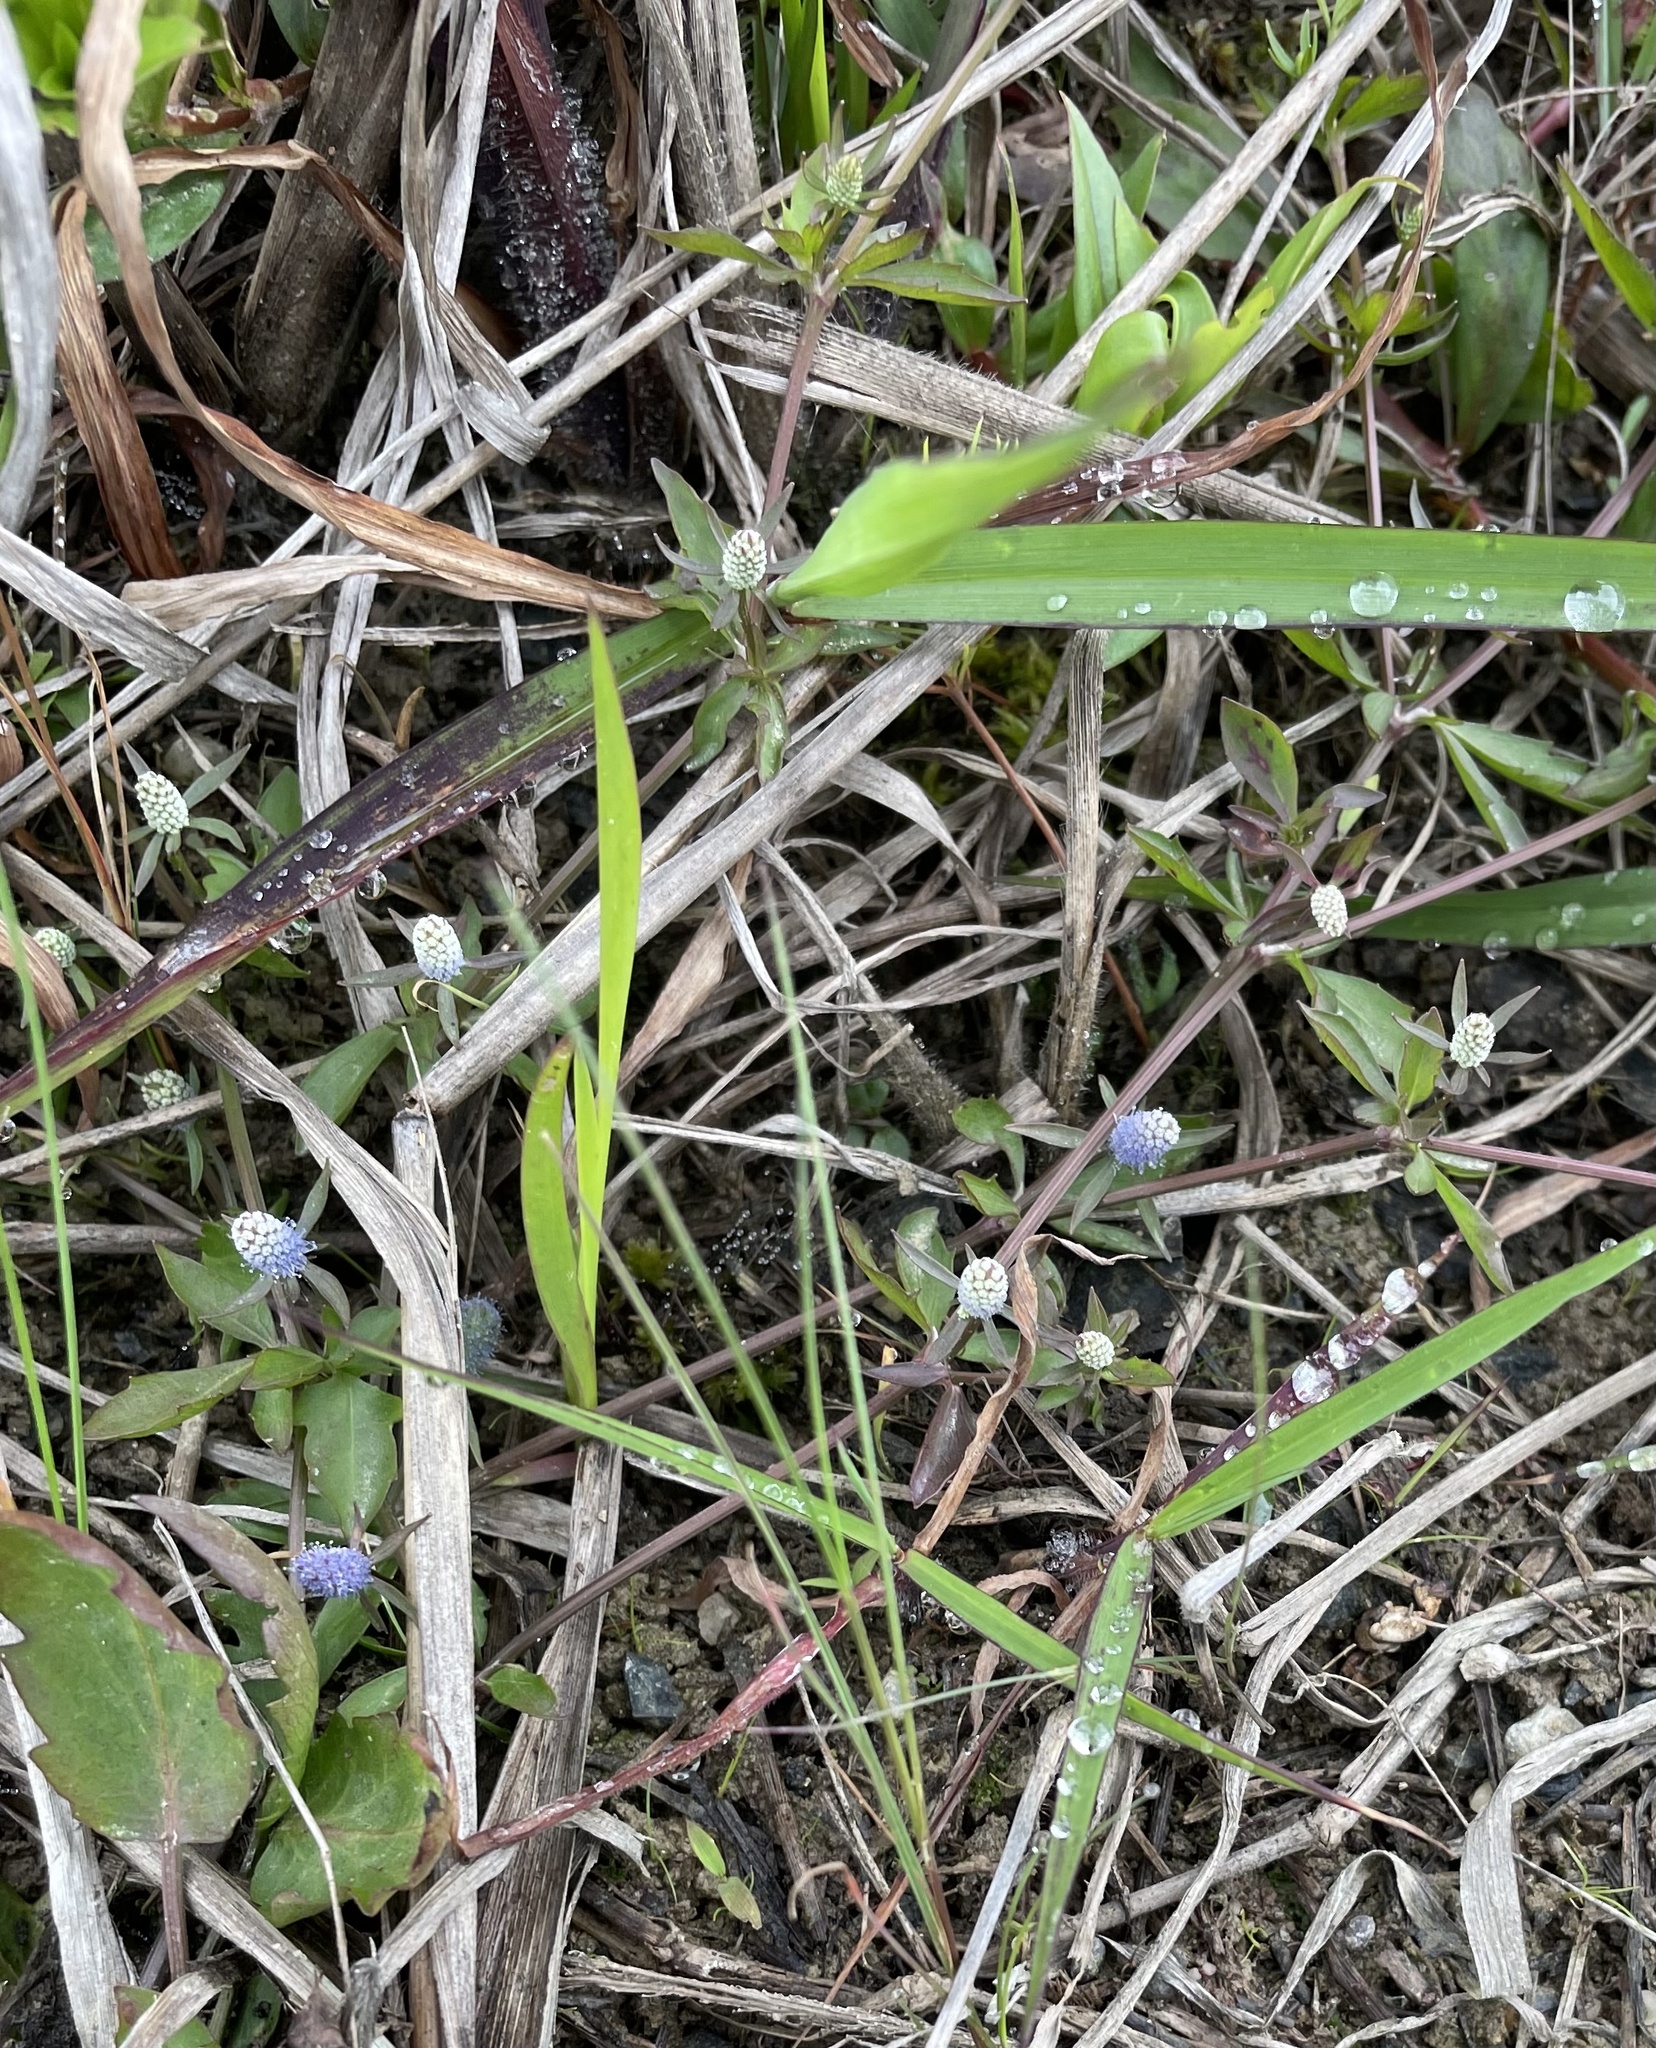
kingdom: Plantae
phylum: Tracheophyta
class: Magnoliopsida
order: Apiales
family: Apiaceae
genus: Eryngium
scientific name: Eryngium prostratum
